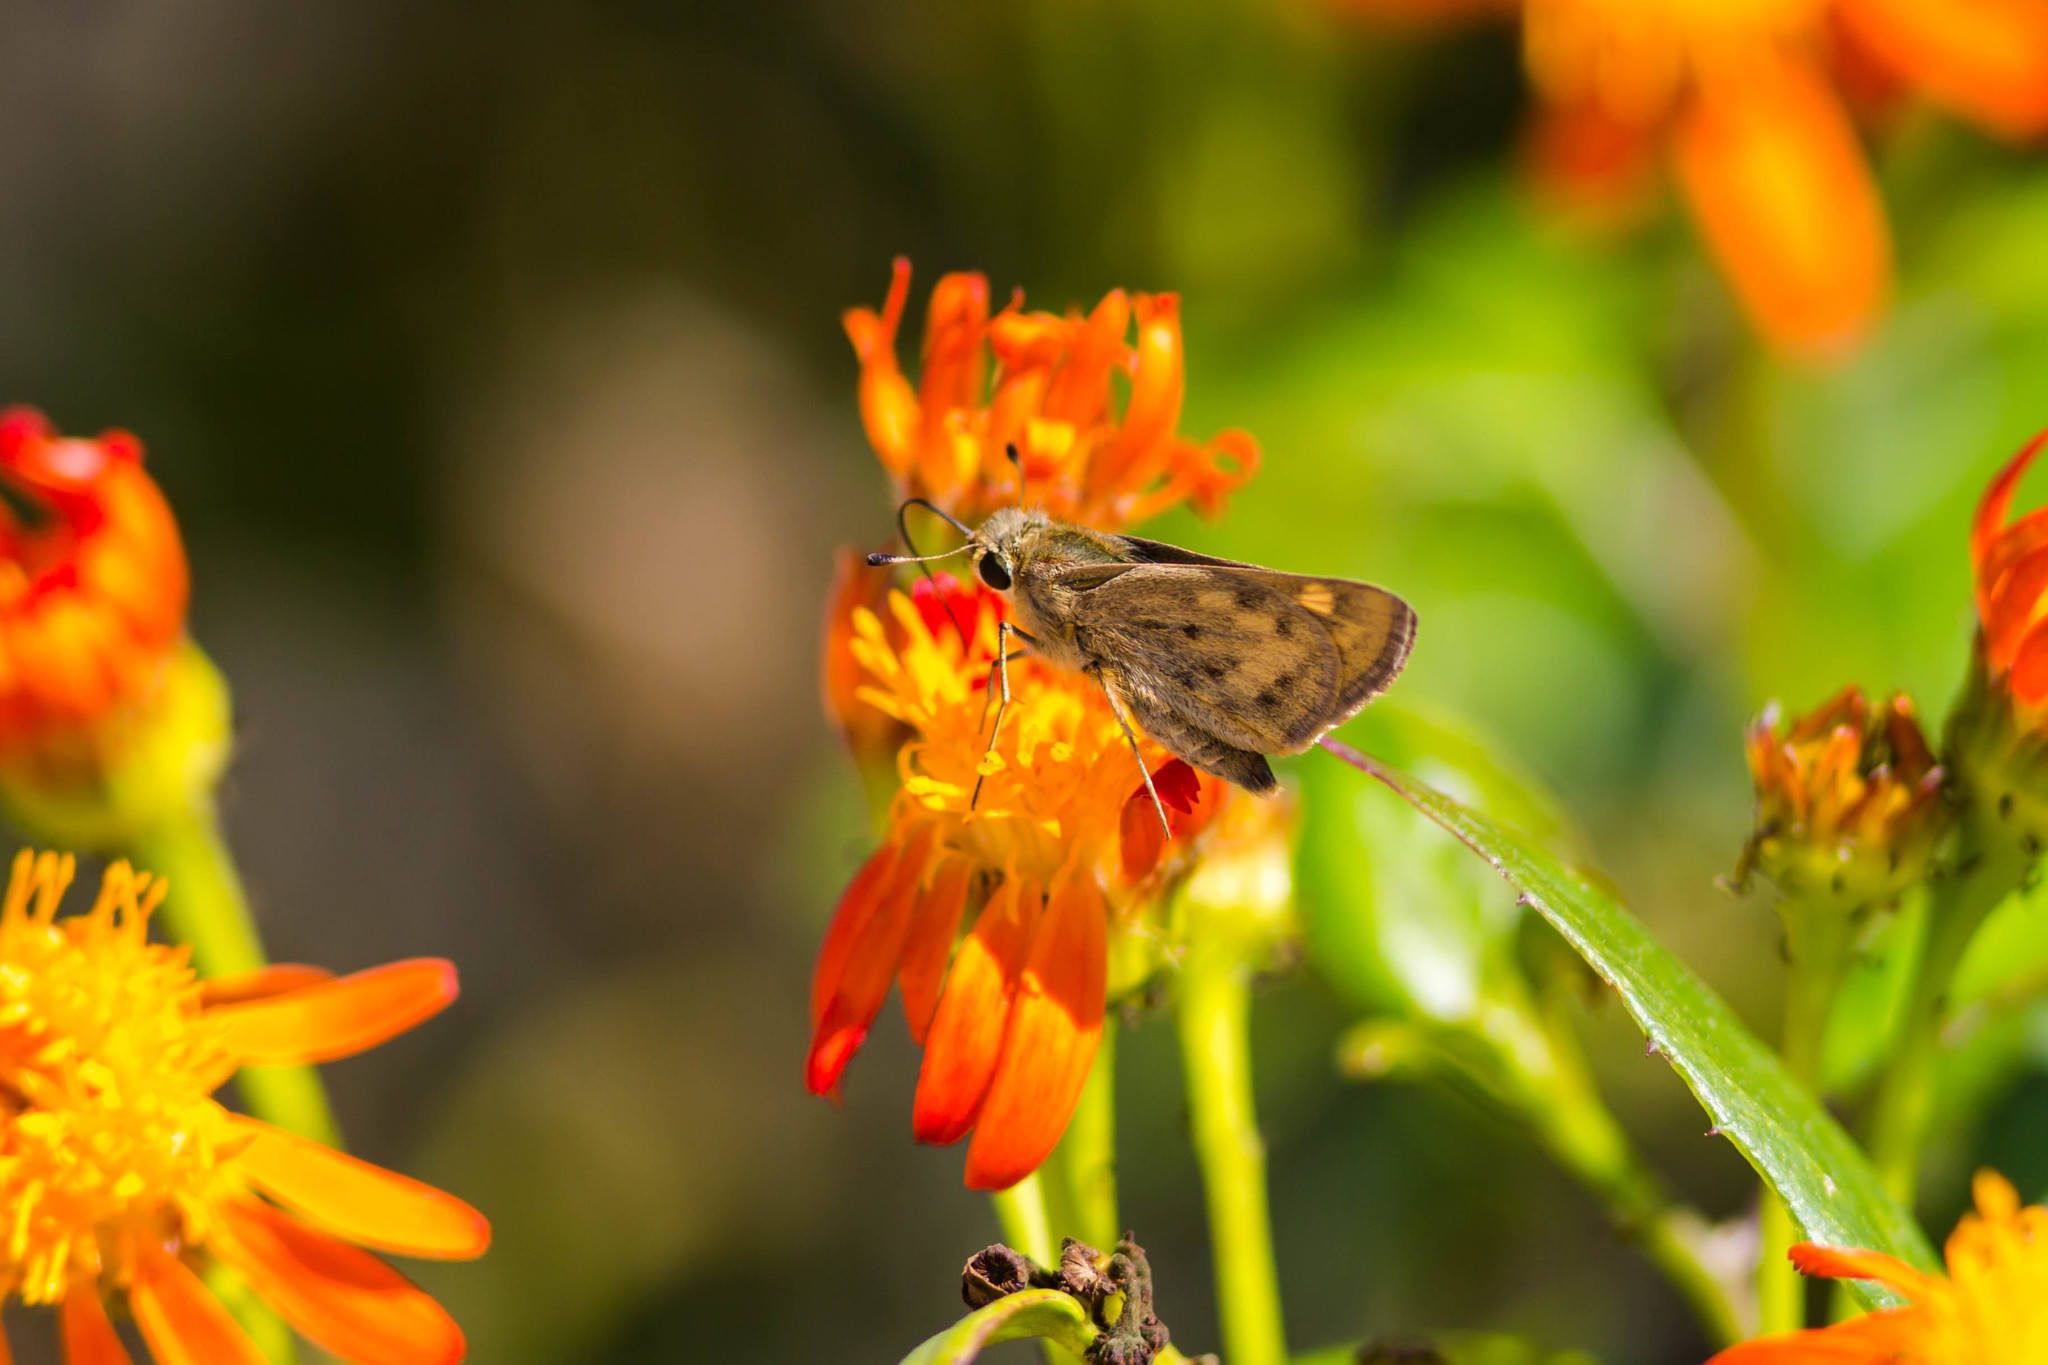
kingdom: Animalia
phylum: Arthropoda
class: Insecta
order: Lepidoptera
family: Hesperiidae
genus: Hylephila
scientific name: Hylephila phyleus
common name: Fiery skipper
